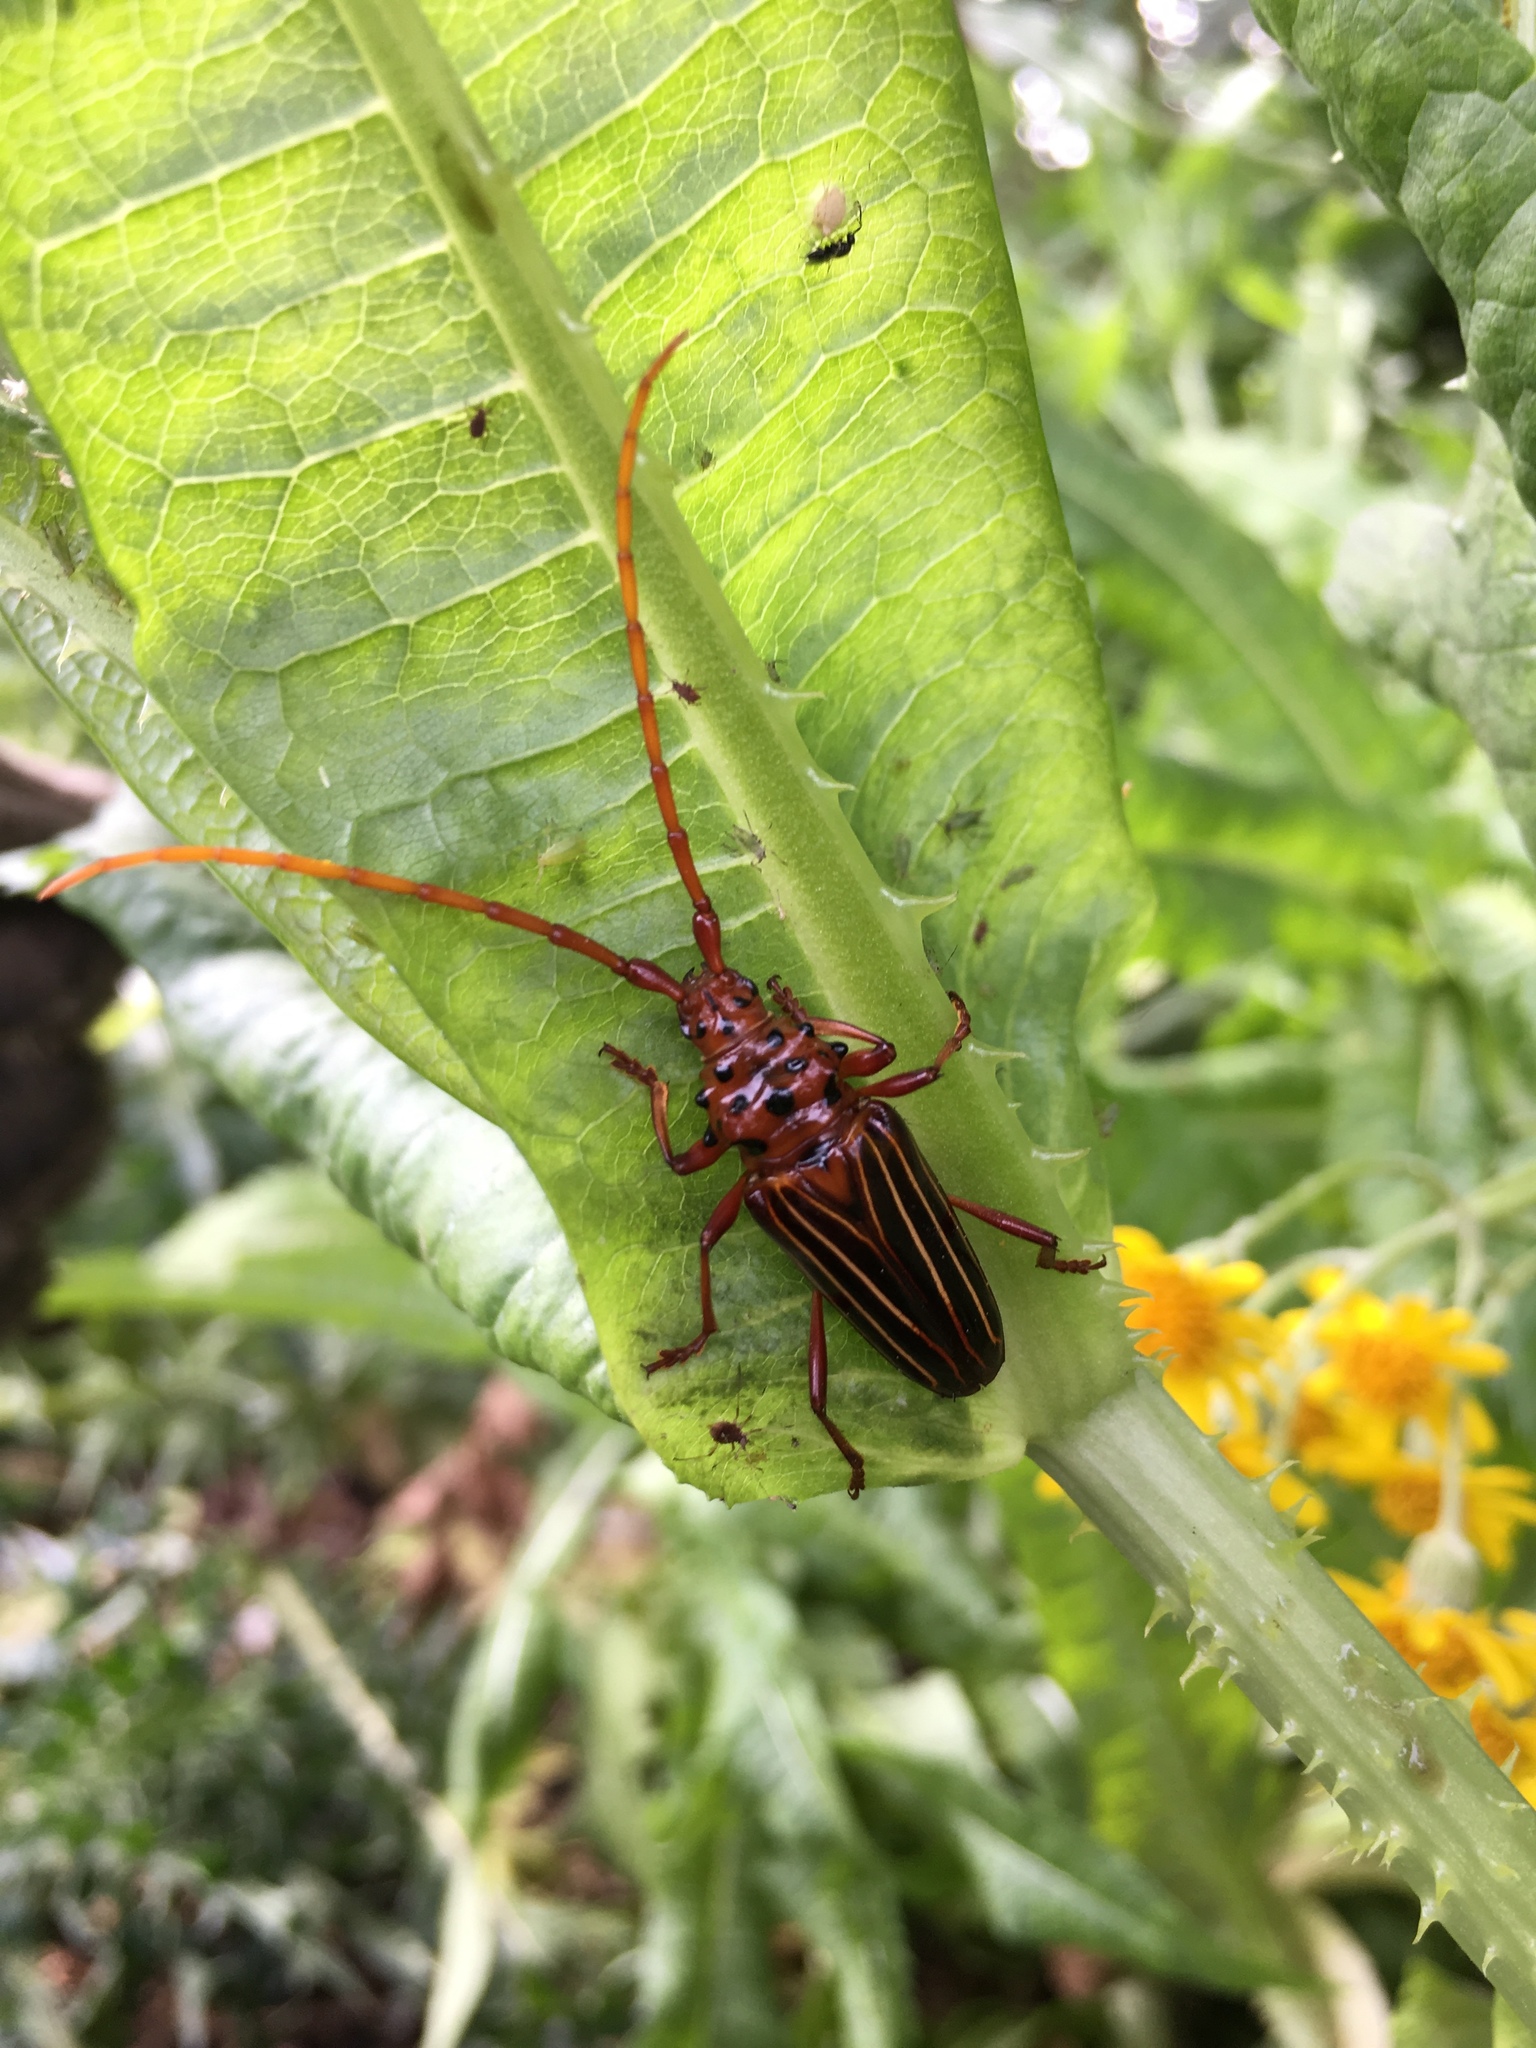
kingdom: Animalia
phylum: Arthropoda
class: Insecta
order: Coleoptera
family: Cerambycidae
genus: Chydarteres
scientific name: Chydarteres striatus
